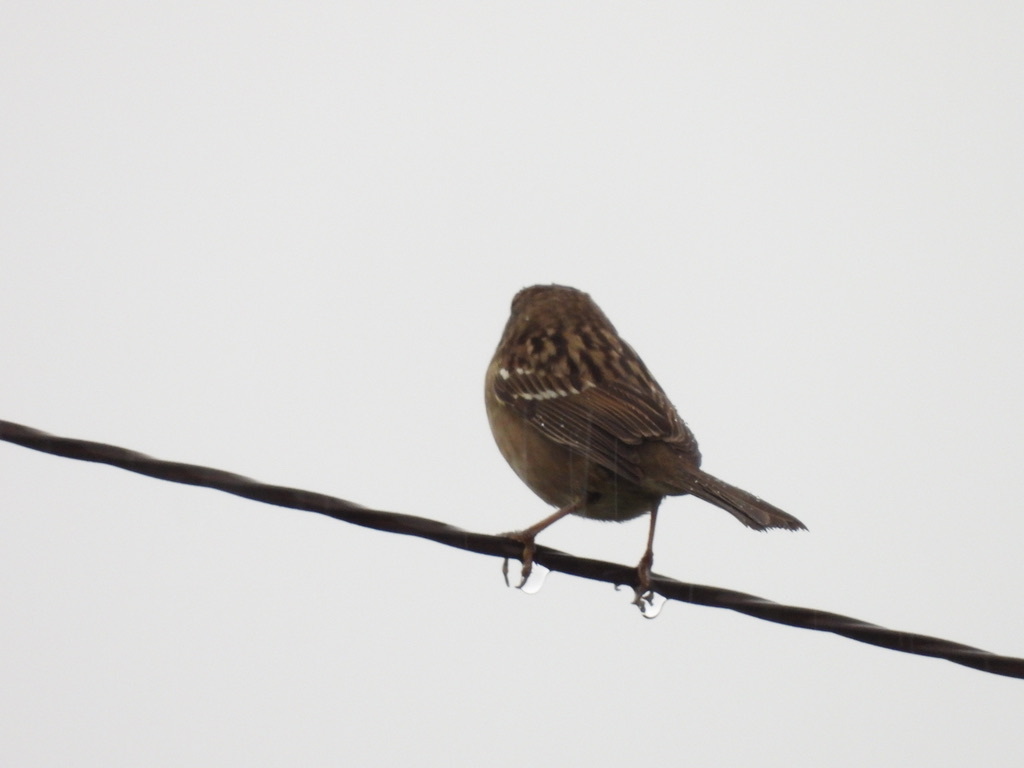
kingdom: Animalia
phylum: Chordata
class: Aves
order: Passeriformes
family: Passerellidae
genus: Zonotrichia
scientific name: Zonotrichia leucophrys
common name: White-crowned sparrow
